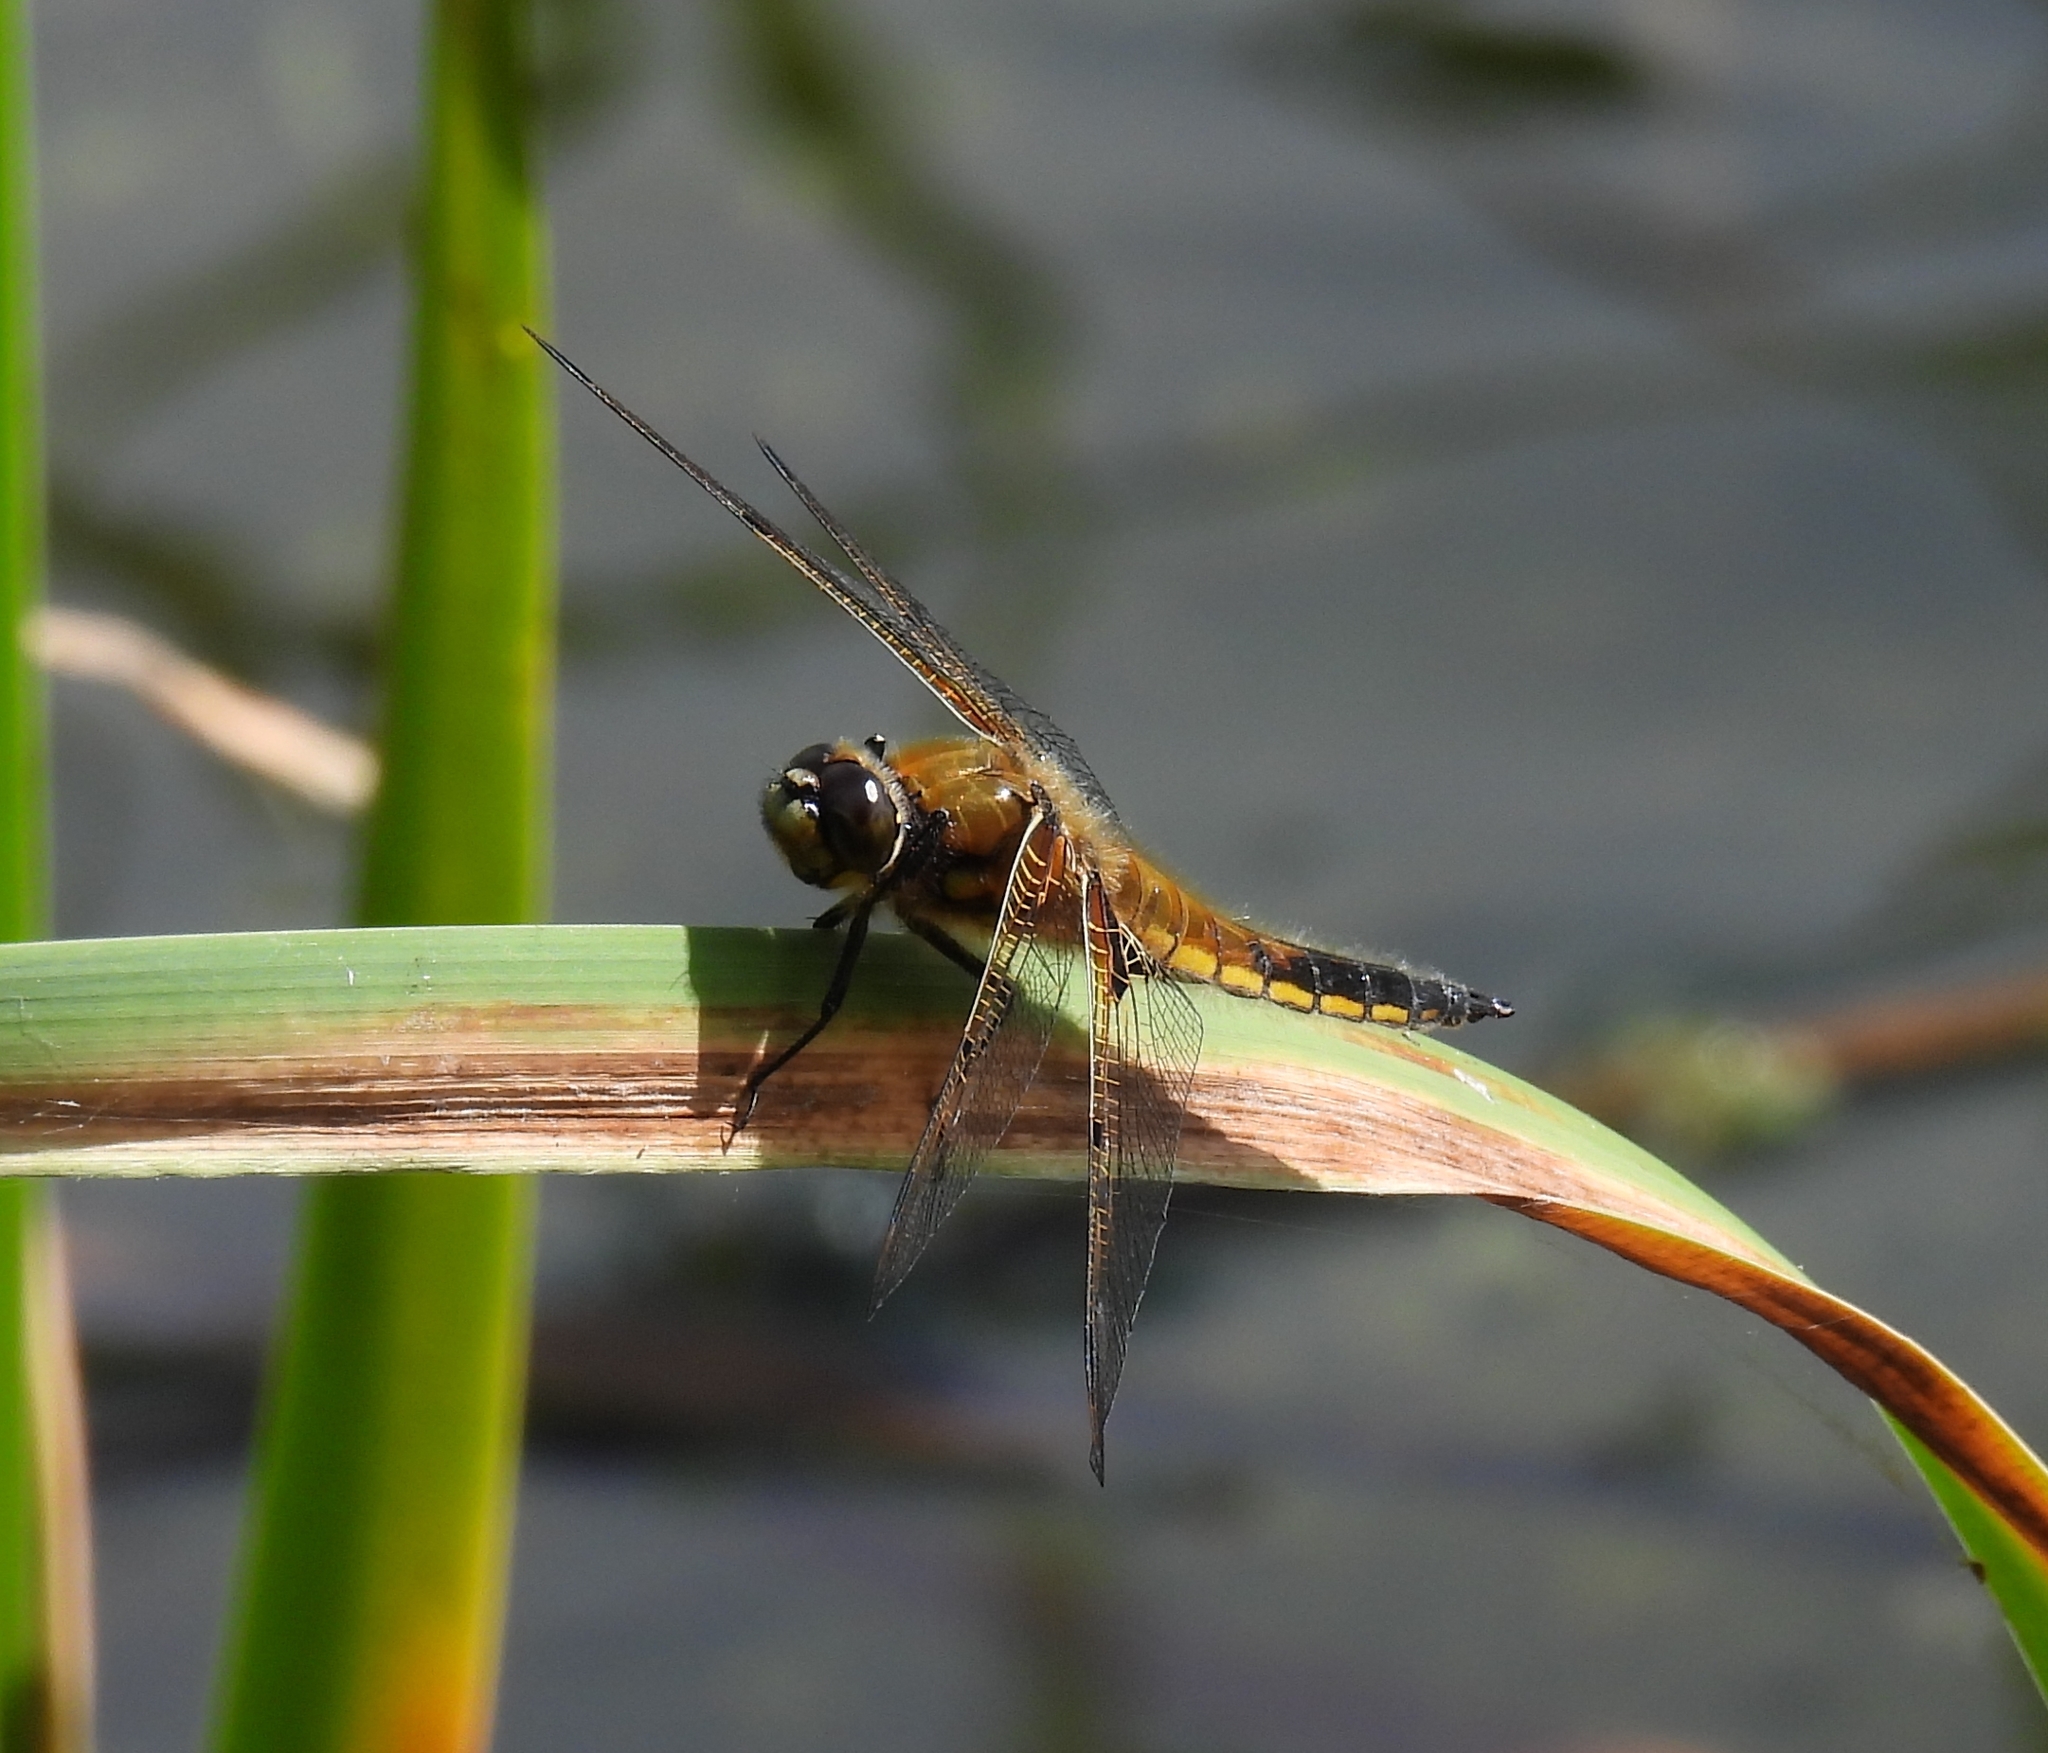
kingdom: Animalia
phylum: Arthropoda
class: Insecta
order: Odonata
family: Libellulidae
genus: Libellula
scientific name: Libellula quadrimaculata
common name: Four-spotted chaser
